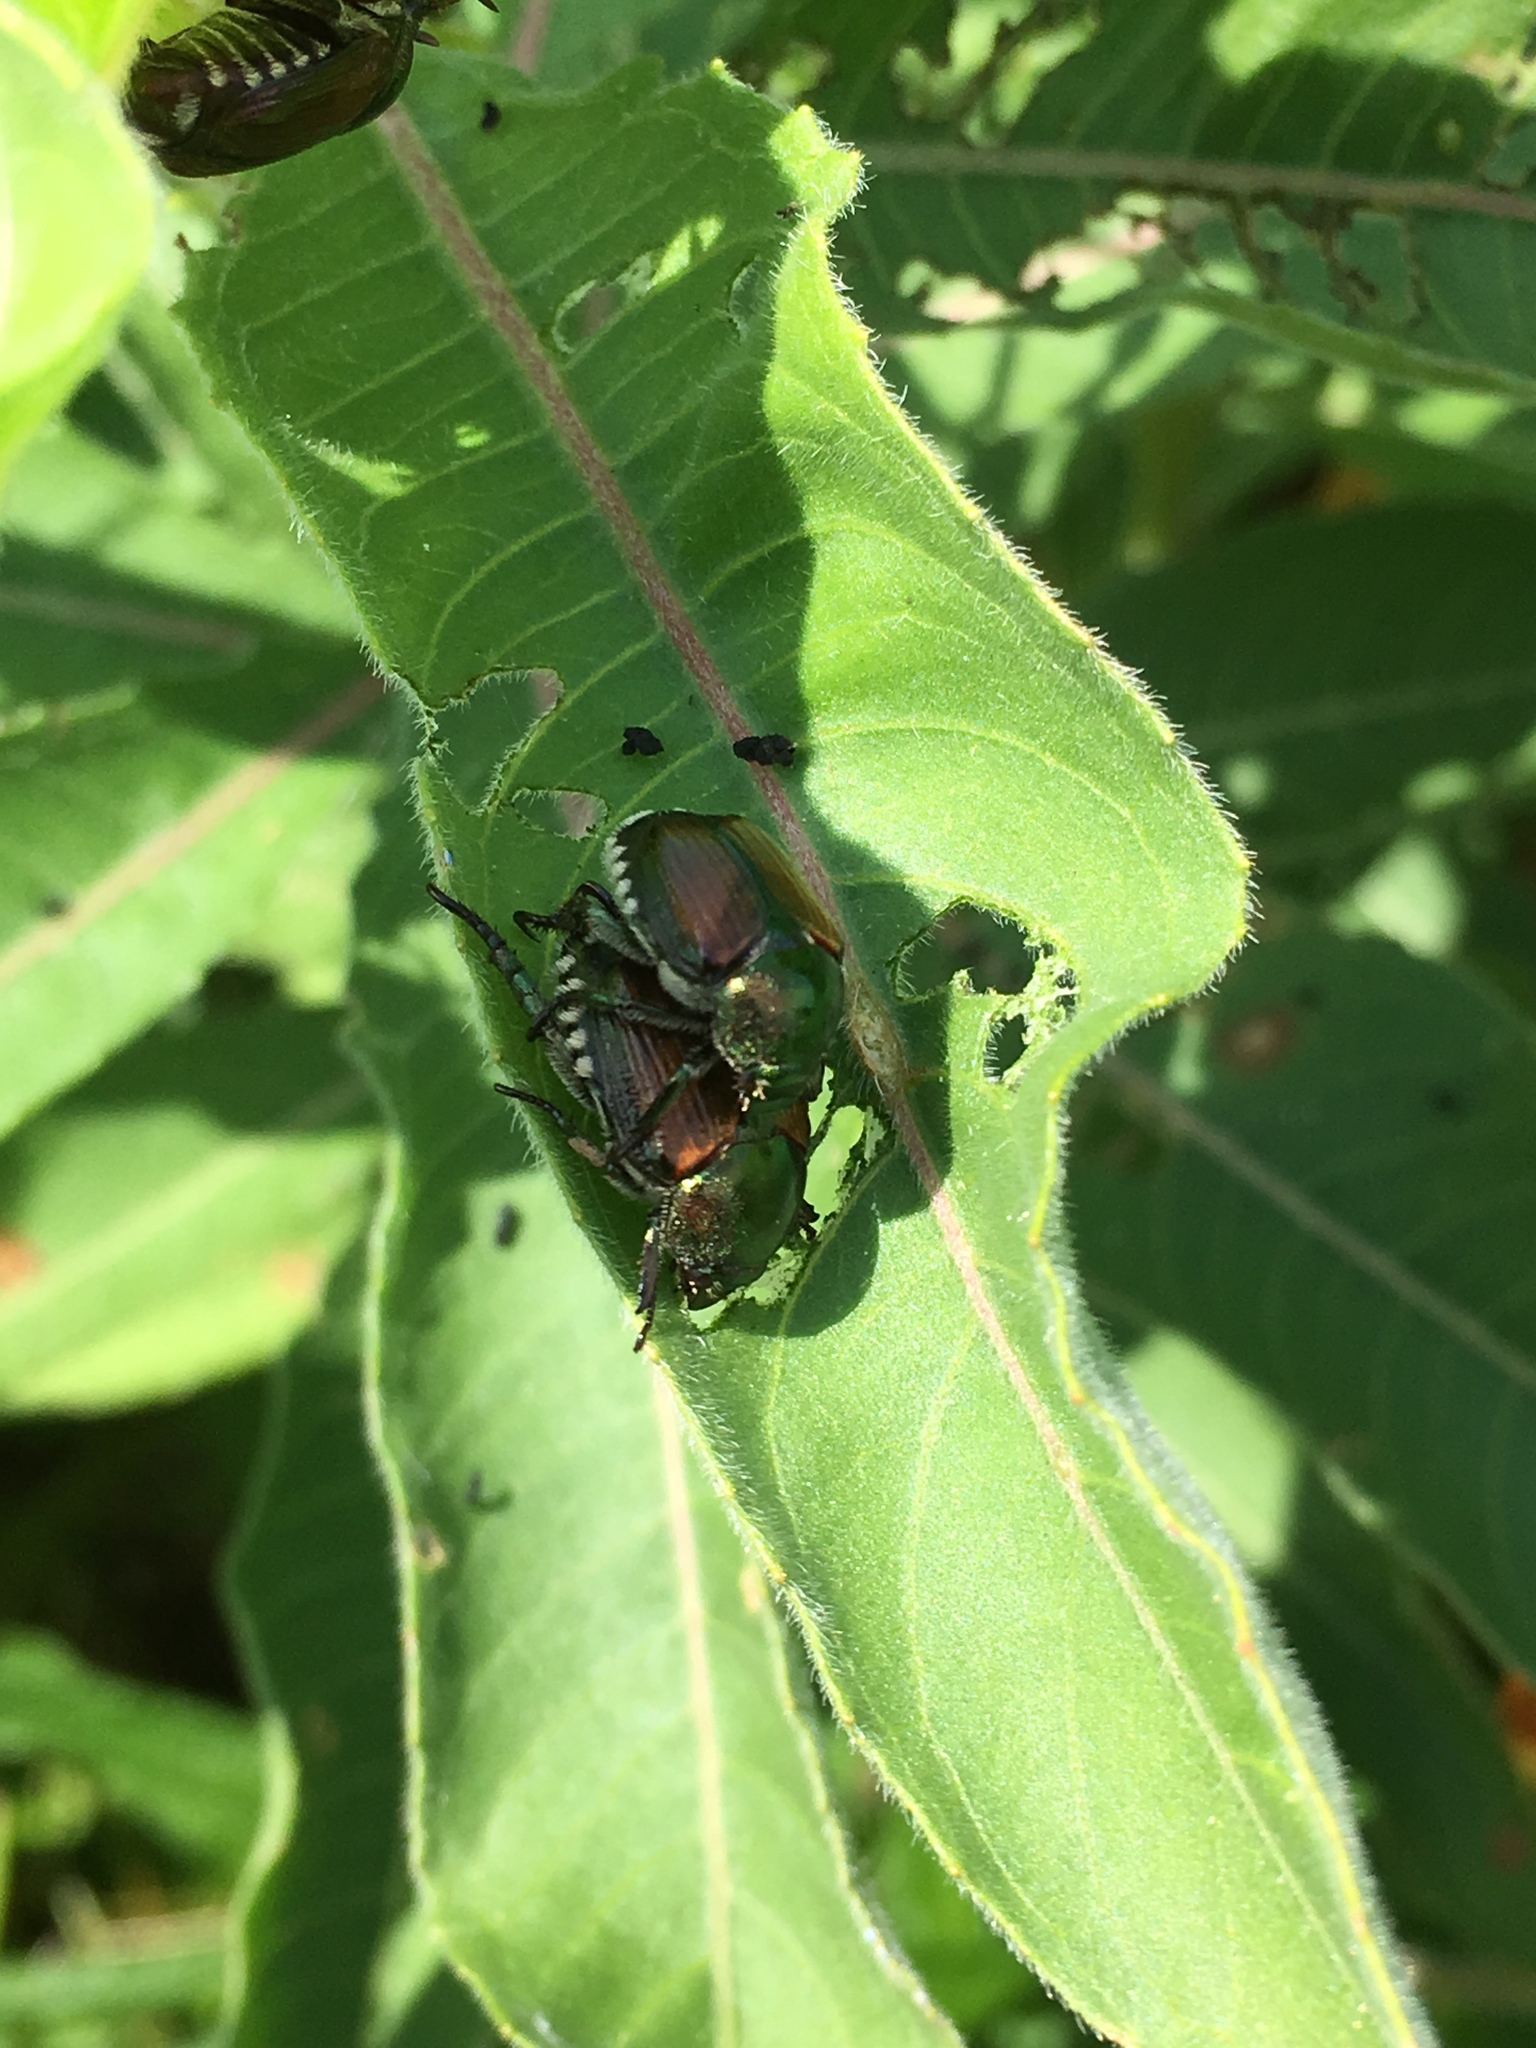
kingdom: Animalia
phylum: Arthropoda
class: Insecta
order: Coleoptera
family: Scarabaeidae
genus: Popillia
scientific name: Popillia japonica
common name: Japanese beetle
